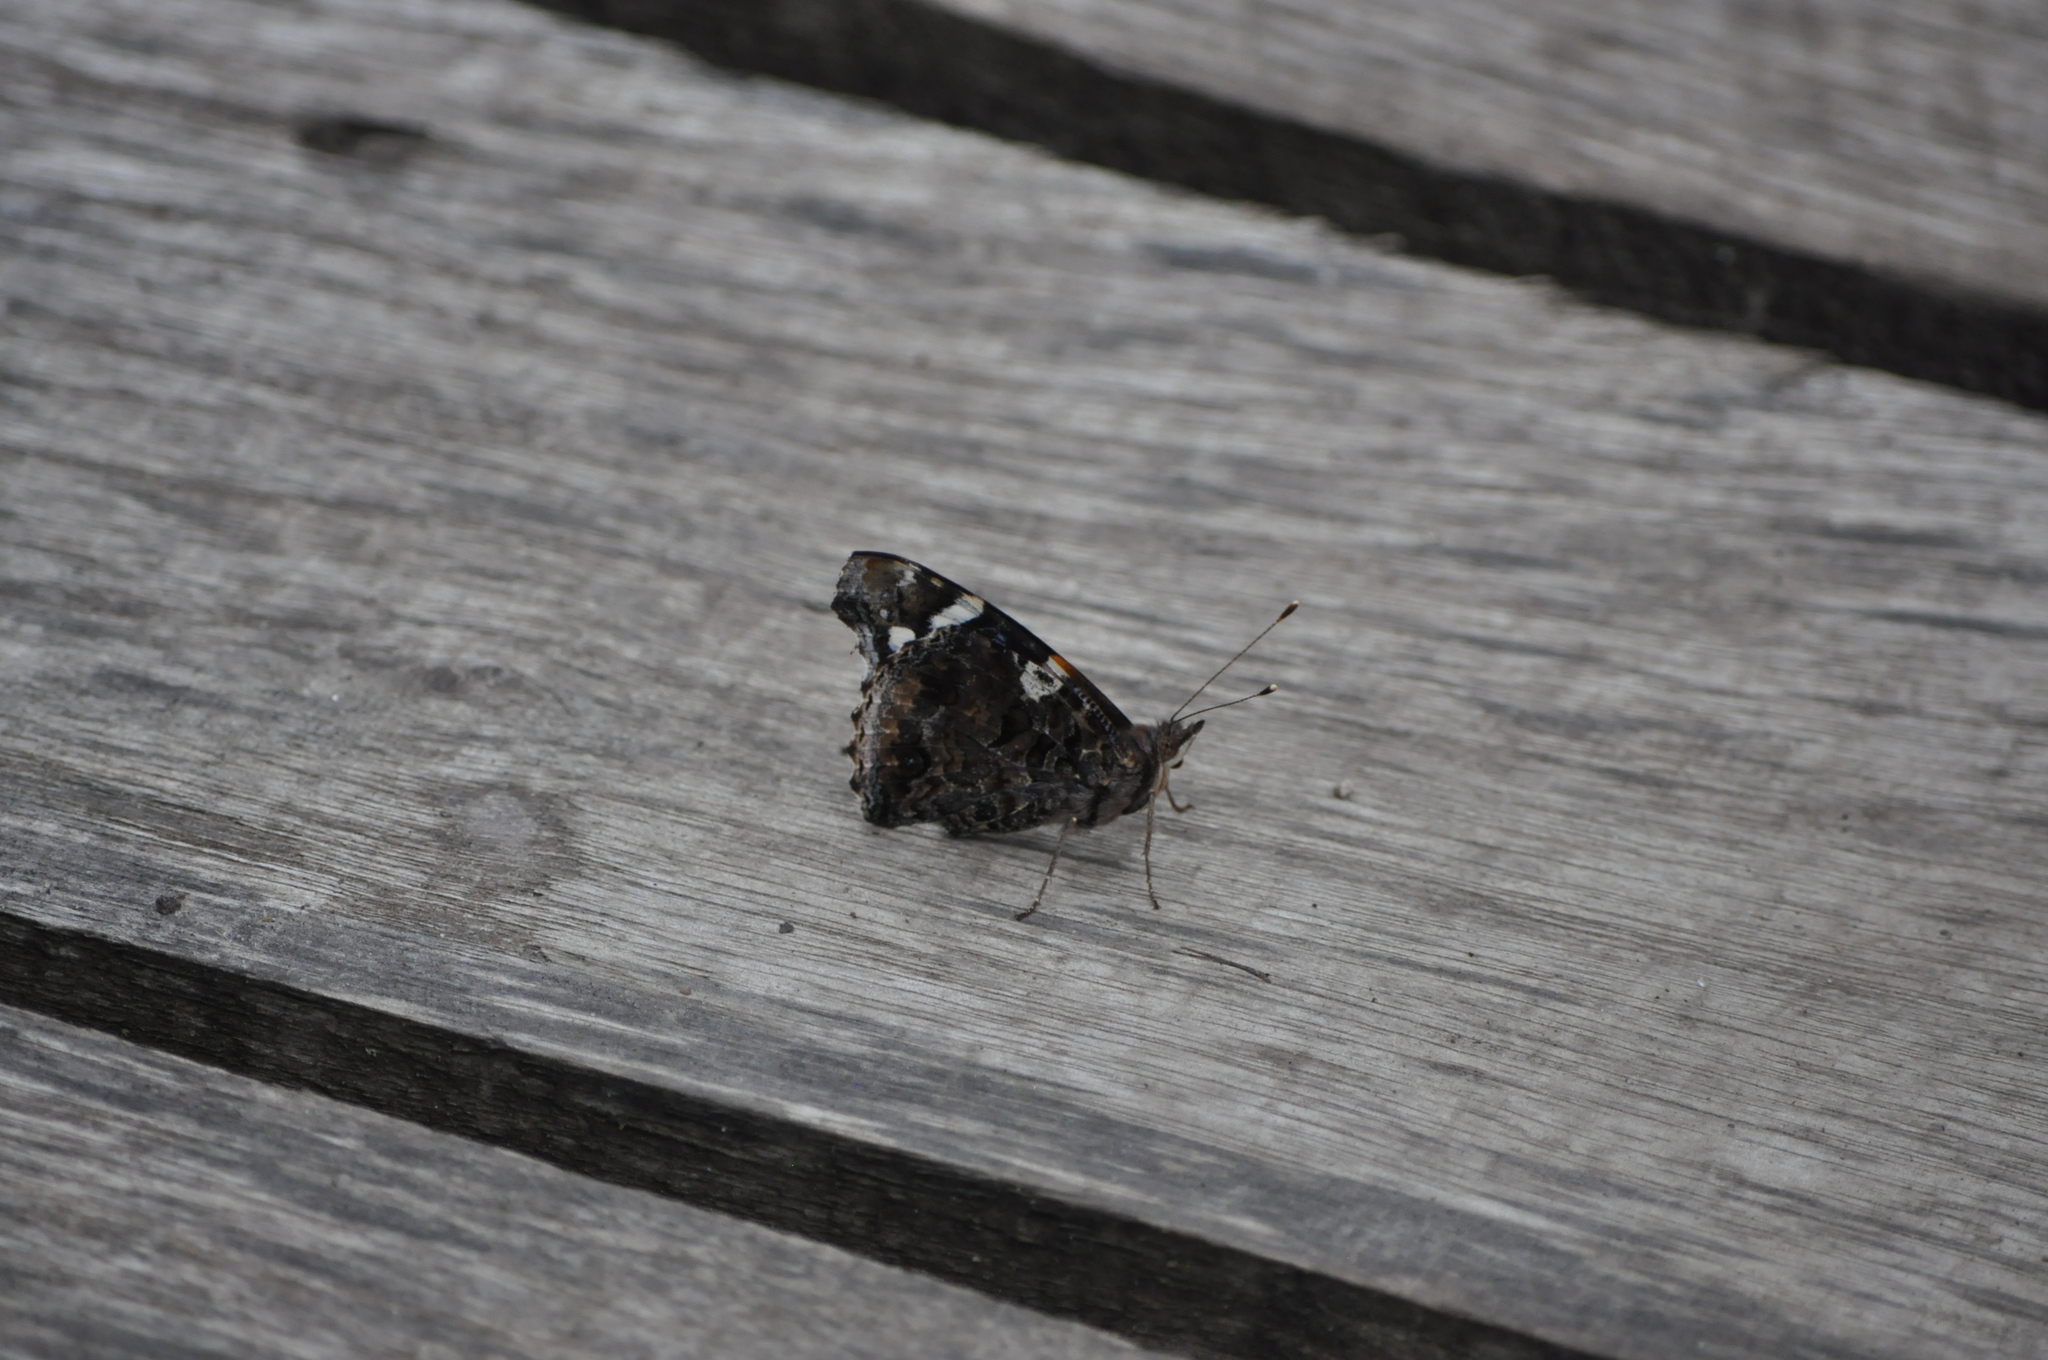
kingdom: Animalia
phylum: Arthropoda
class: Insecta
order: Lepidoptera
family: Nymphalidae
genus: Vanessa
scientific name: Vanessa atalanta
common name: Red admiral
